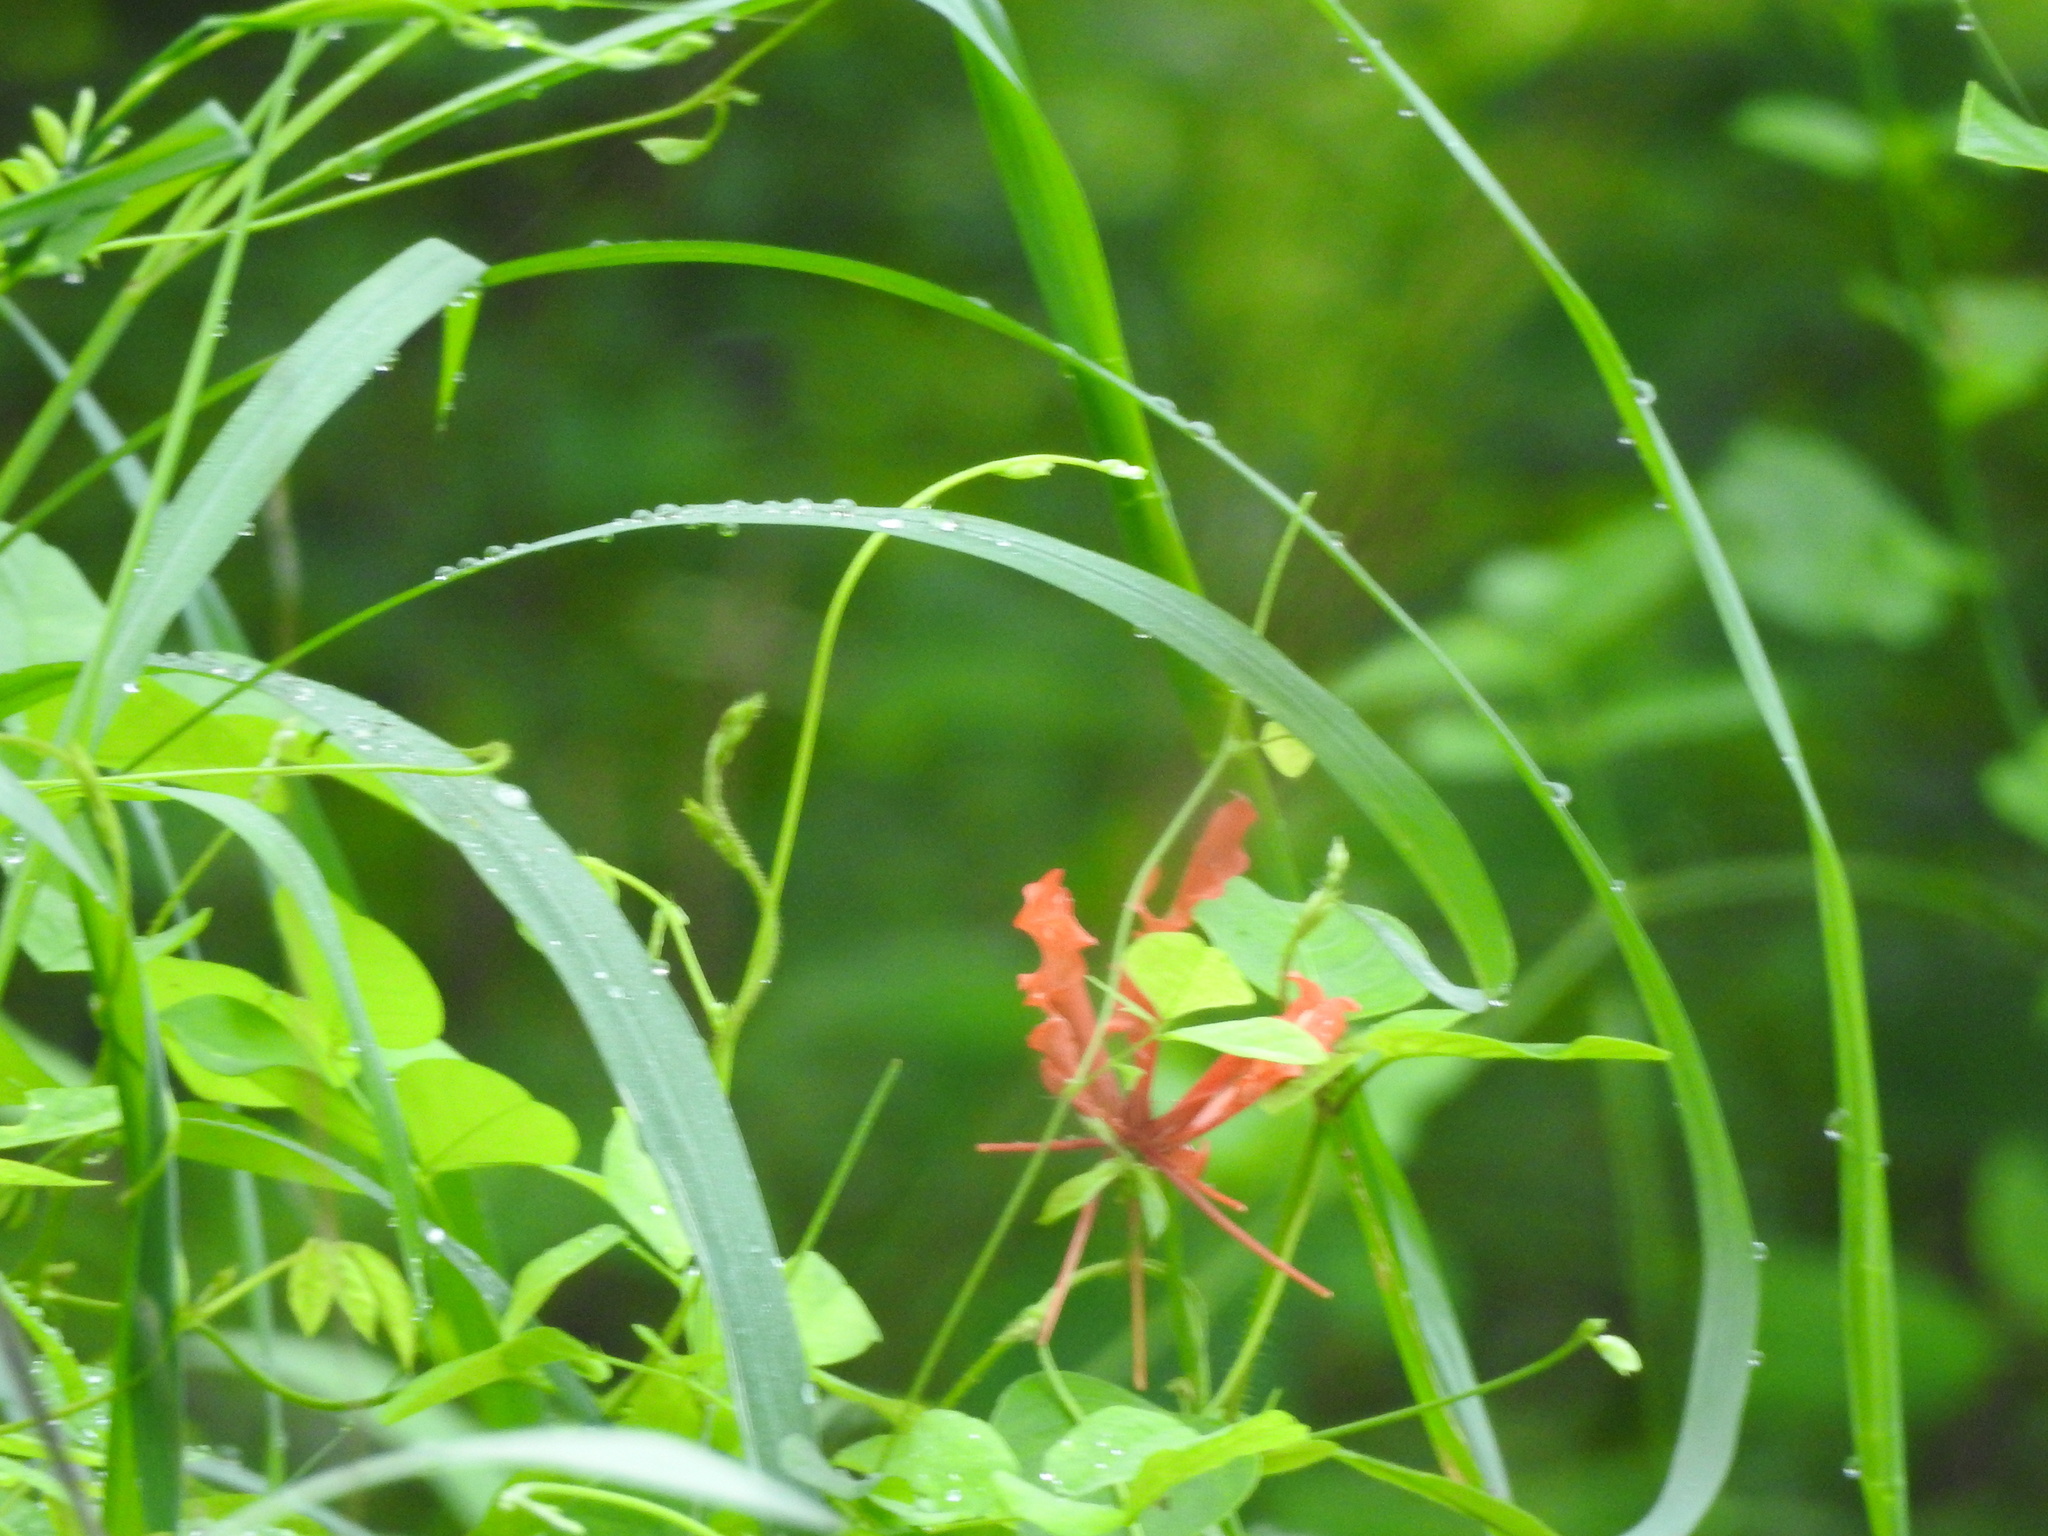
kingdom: Plantae
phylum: Tracheophyta
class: Liliopsida
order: Liliales
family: Colchicaceae
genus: Gloriosa
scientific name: Gloriosa superba
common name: Flame lily
